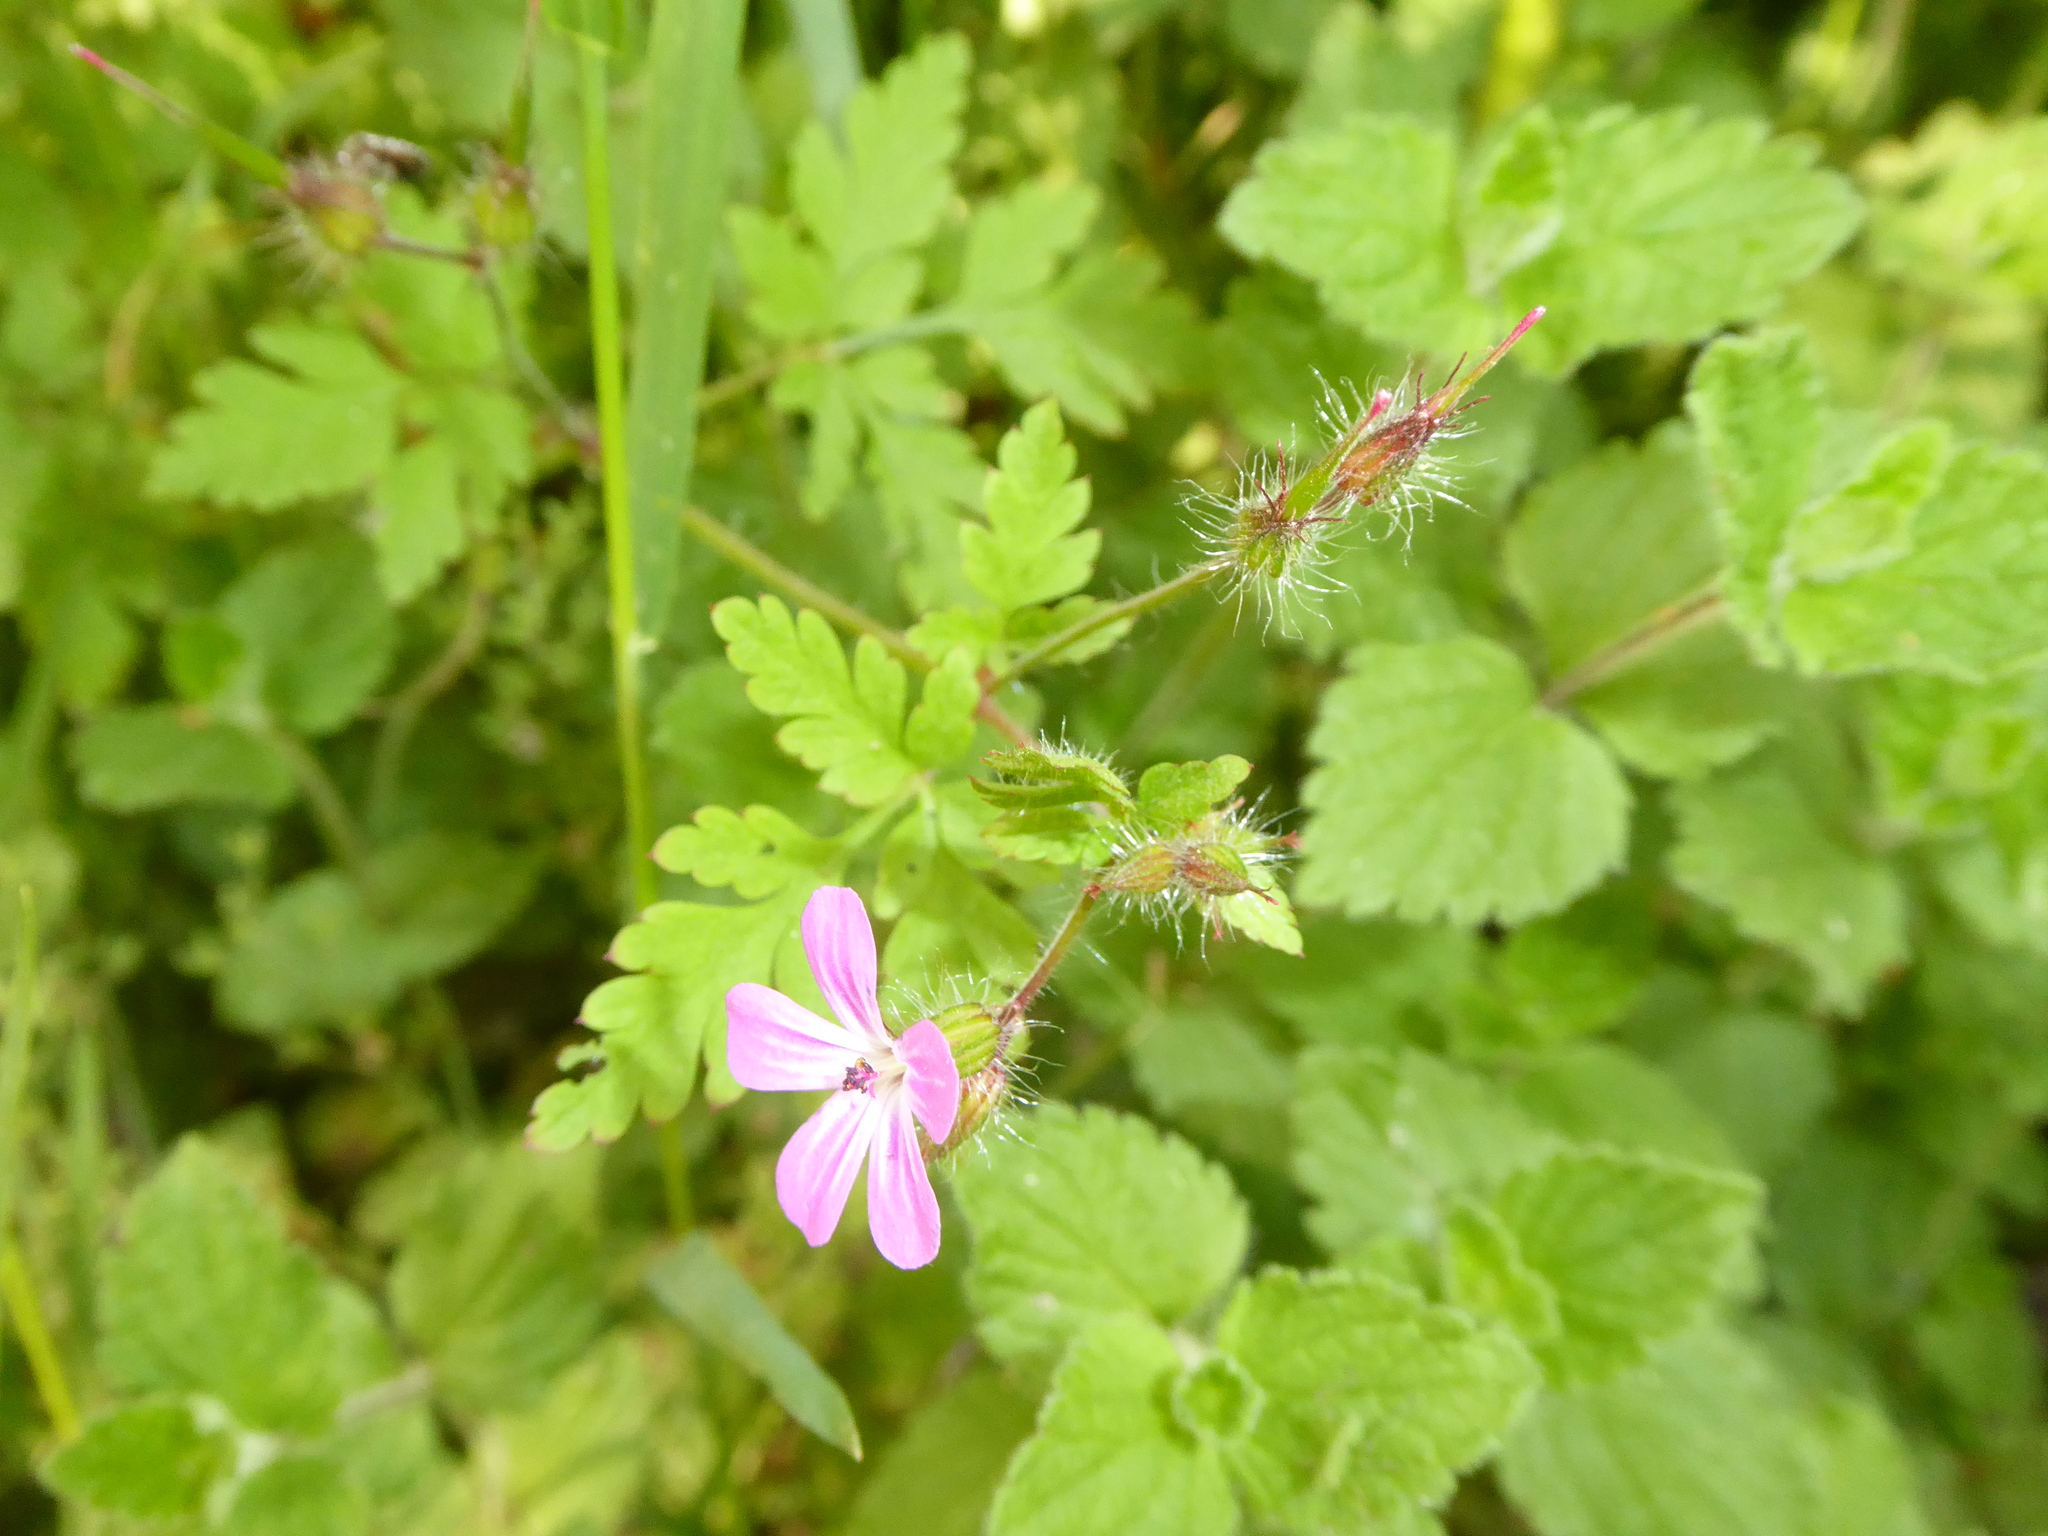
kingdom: Plantae
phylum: Tracheophyta
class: Magnoliopsida
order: Geraniales
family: Geraniaceae
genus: Geranium
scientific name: Geranium robertianum
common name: Herb-robert
